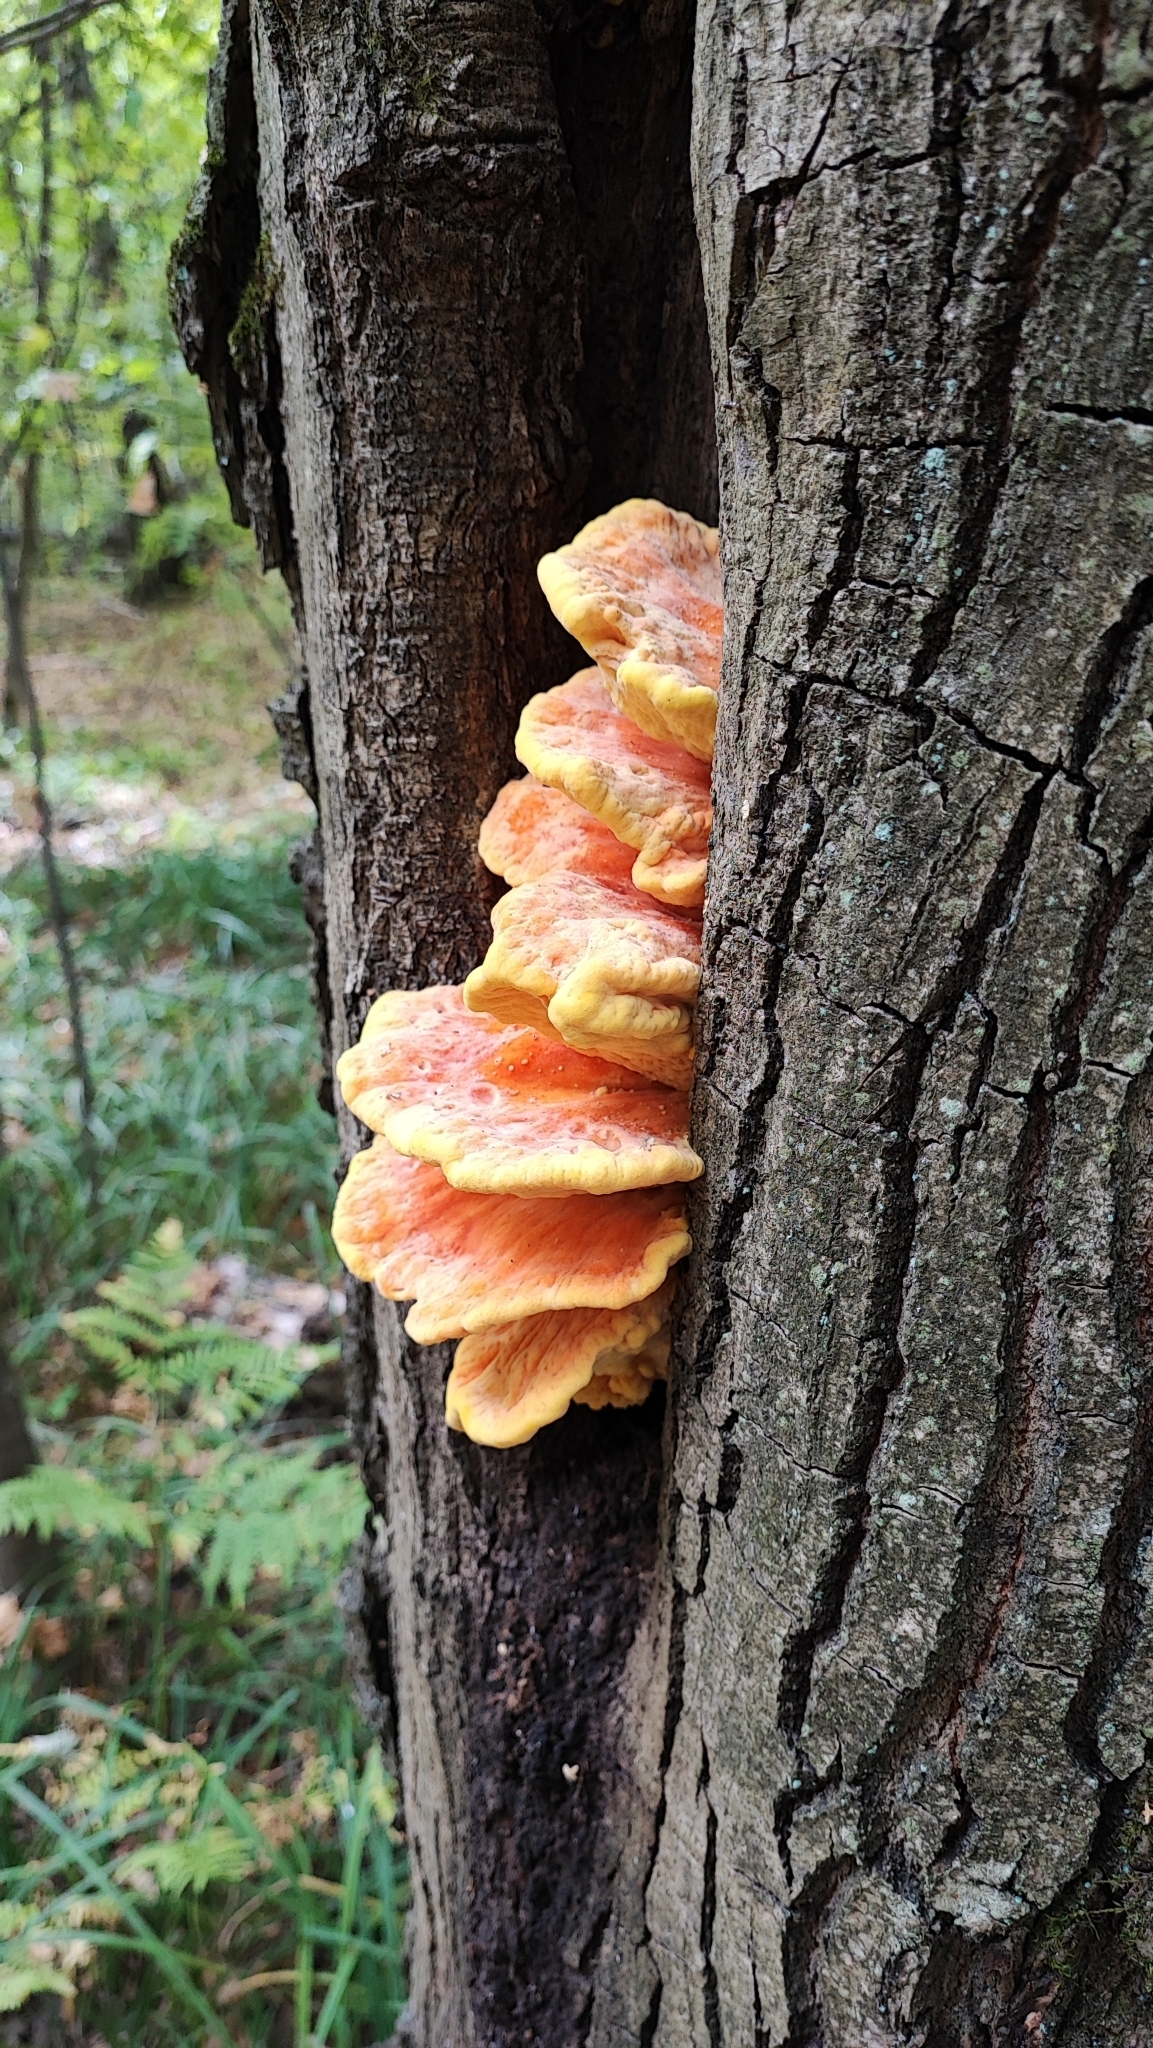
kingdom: Fungi
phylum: Basidiomycota
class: Agaricomycetes
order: Polyporales
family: Laetiporaceae
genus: Laetiporus
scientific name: Laetiporus sulphureus
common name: Chicken of the woods
